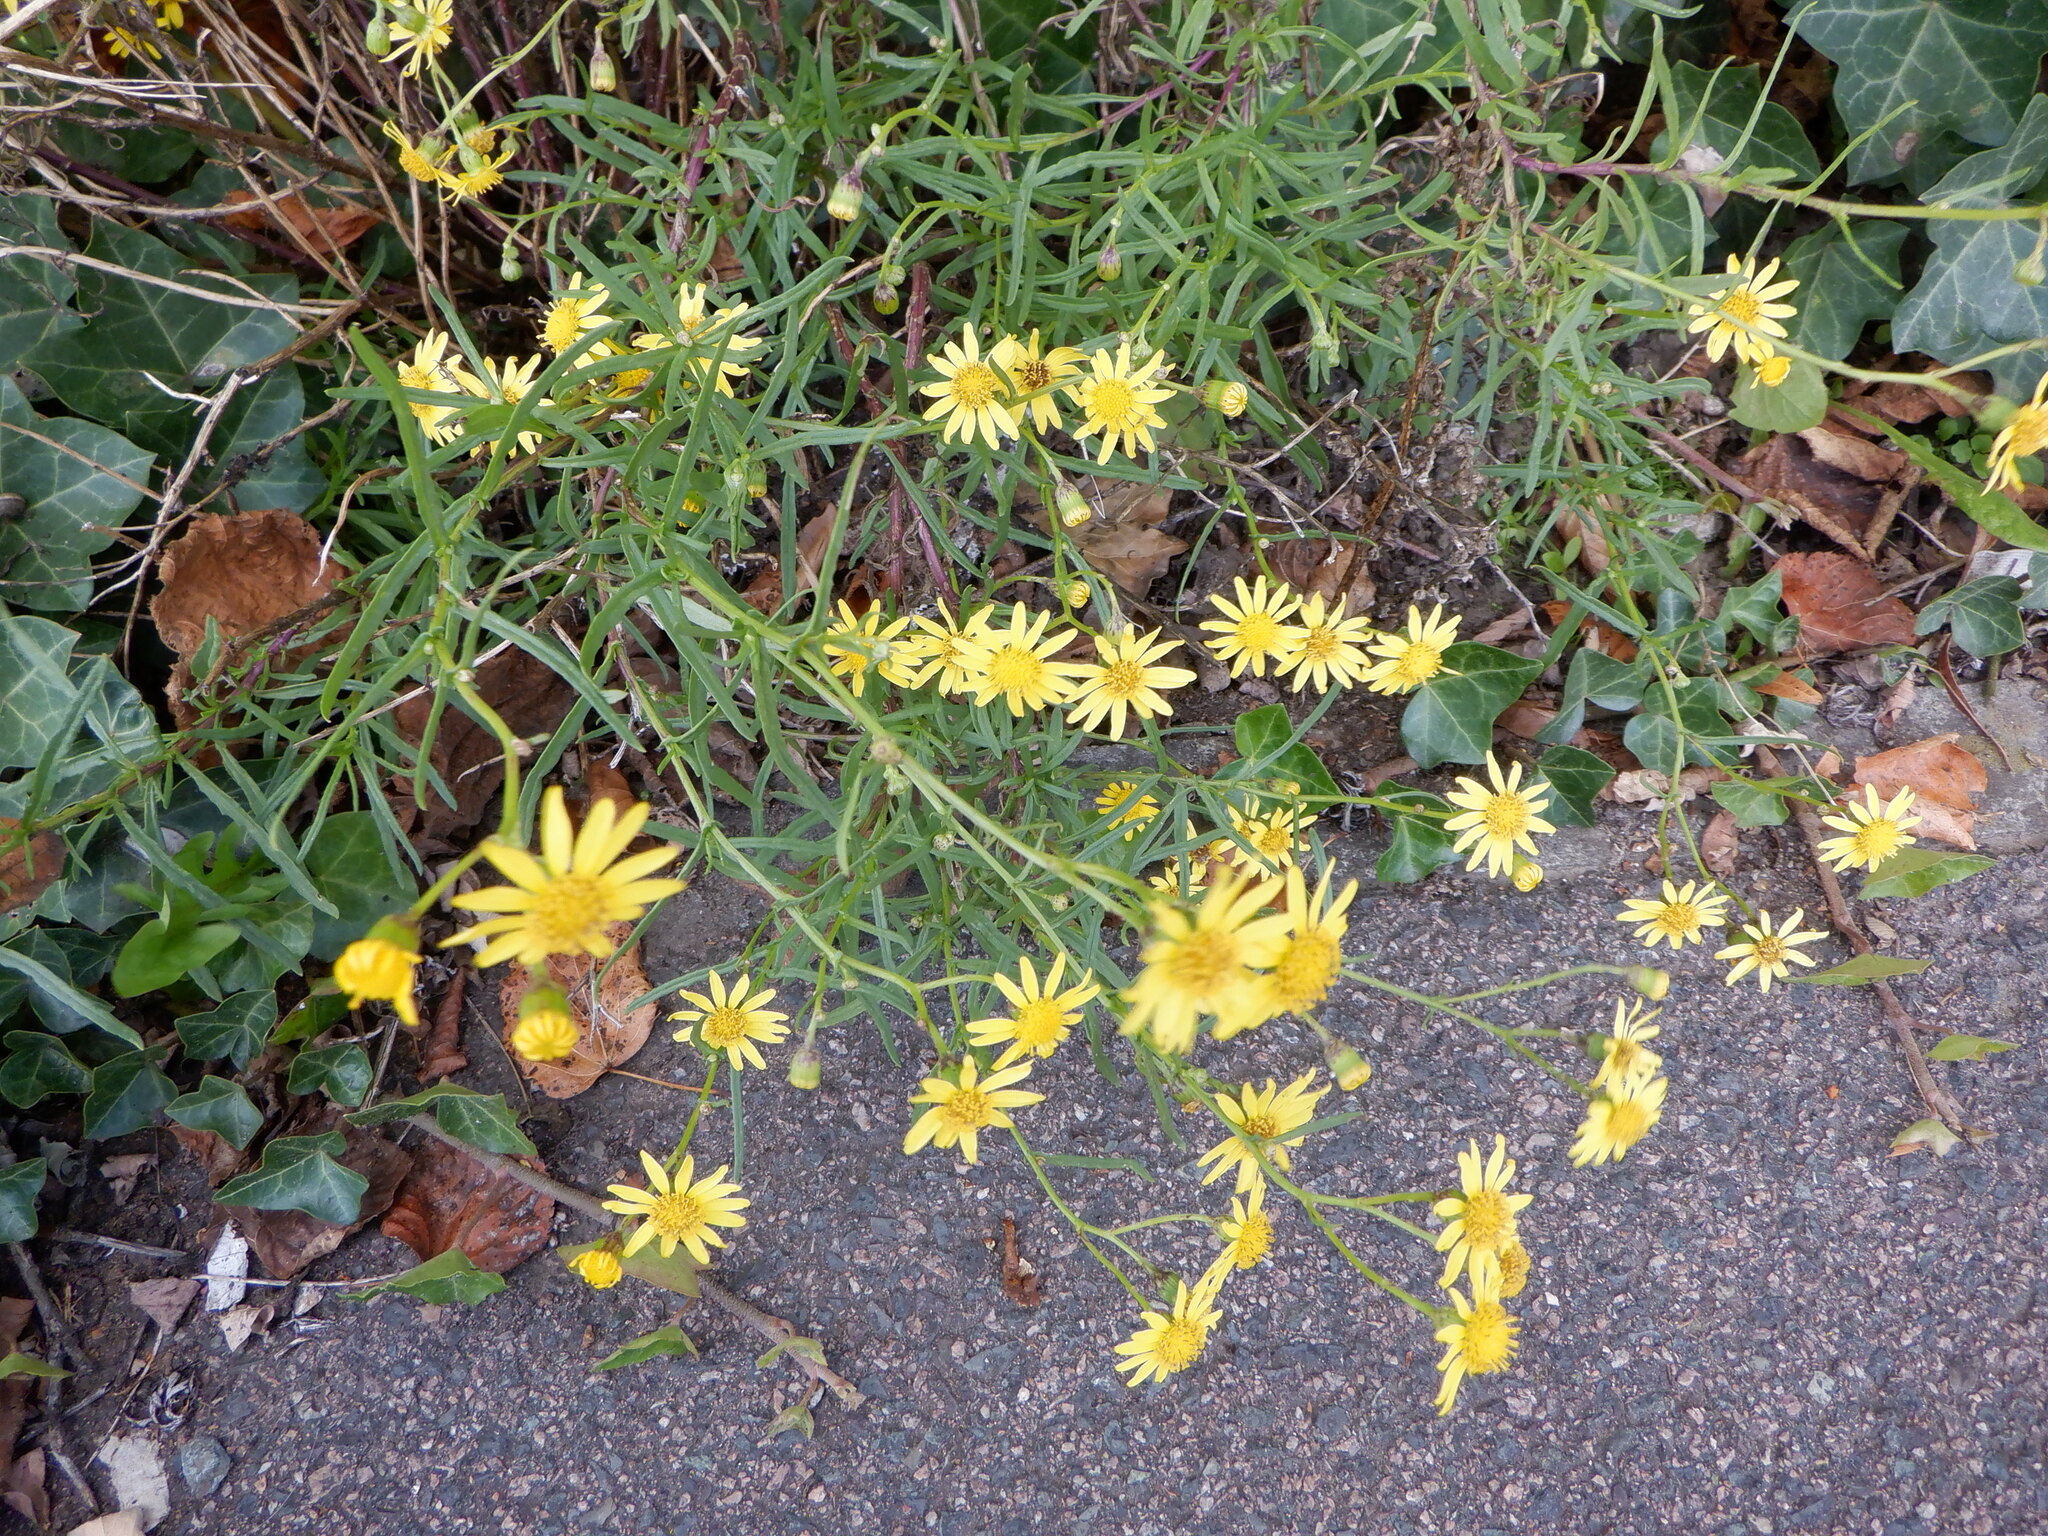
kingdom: Plantae
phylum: Tracheophyta
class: Magnoliopsida
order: Asterales
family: Asteraceae
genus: Senecio
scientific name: Senecio inaequidens
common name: Narrow-leaved ragwort
